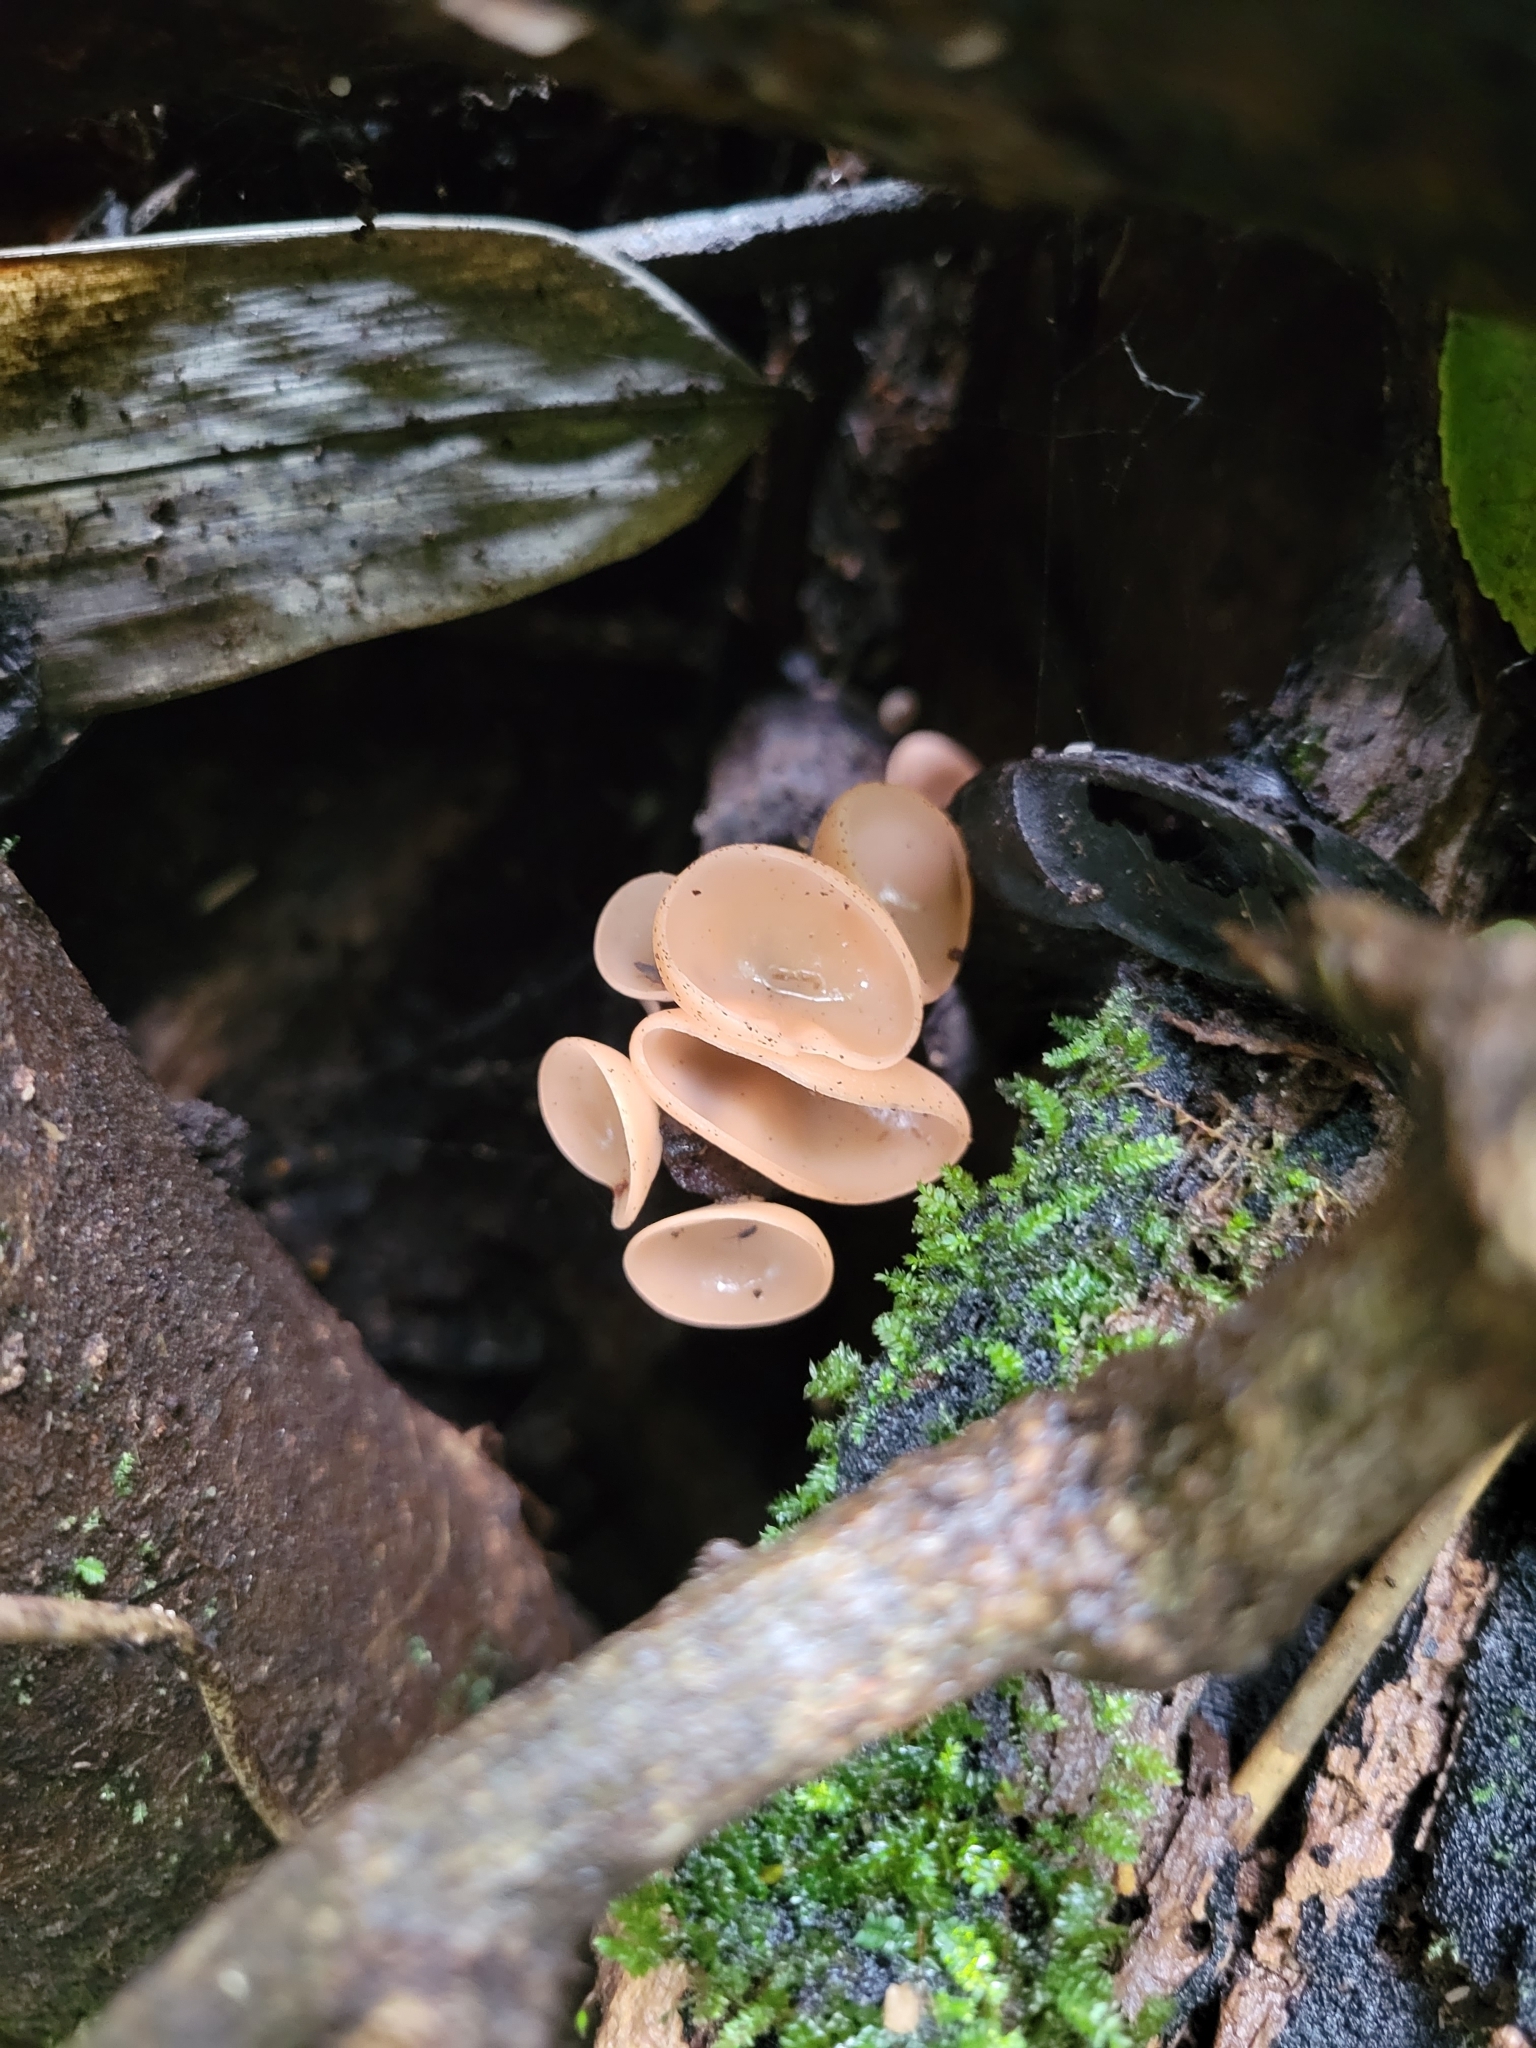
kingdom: Fungi
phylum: Ascomycota
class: Pezizomycetes
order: Pezizales
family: Sarcoscyphaceae
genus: Cookeina
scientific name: Cookeina venezuelae
